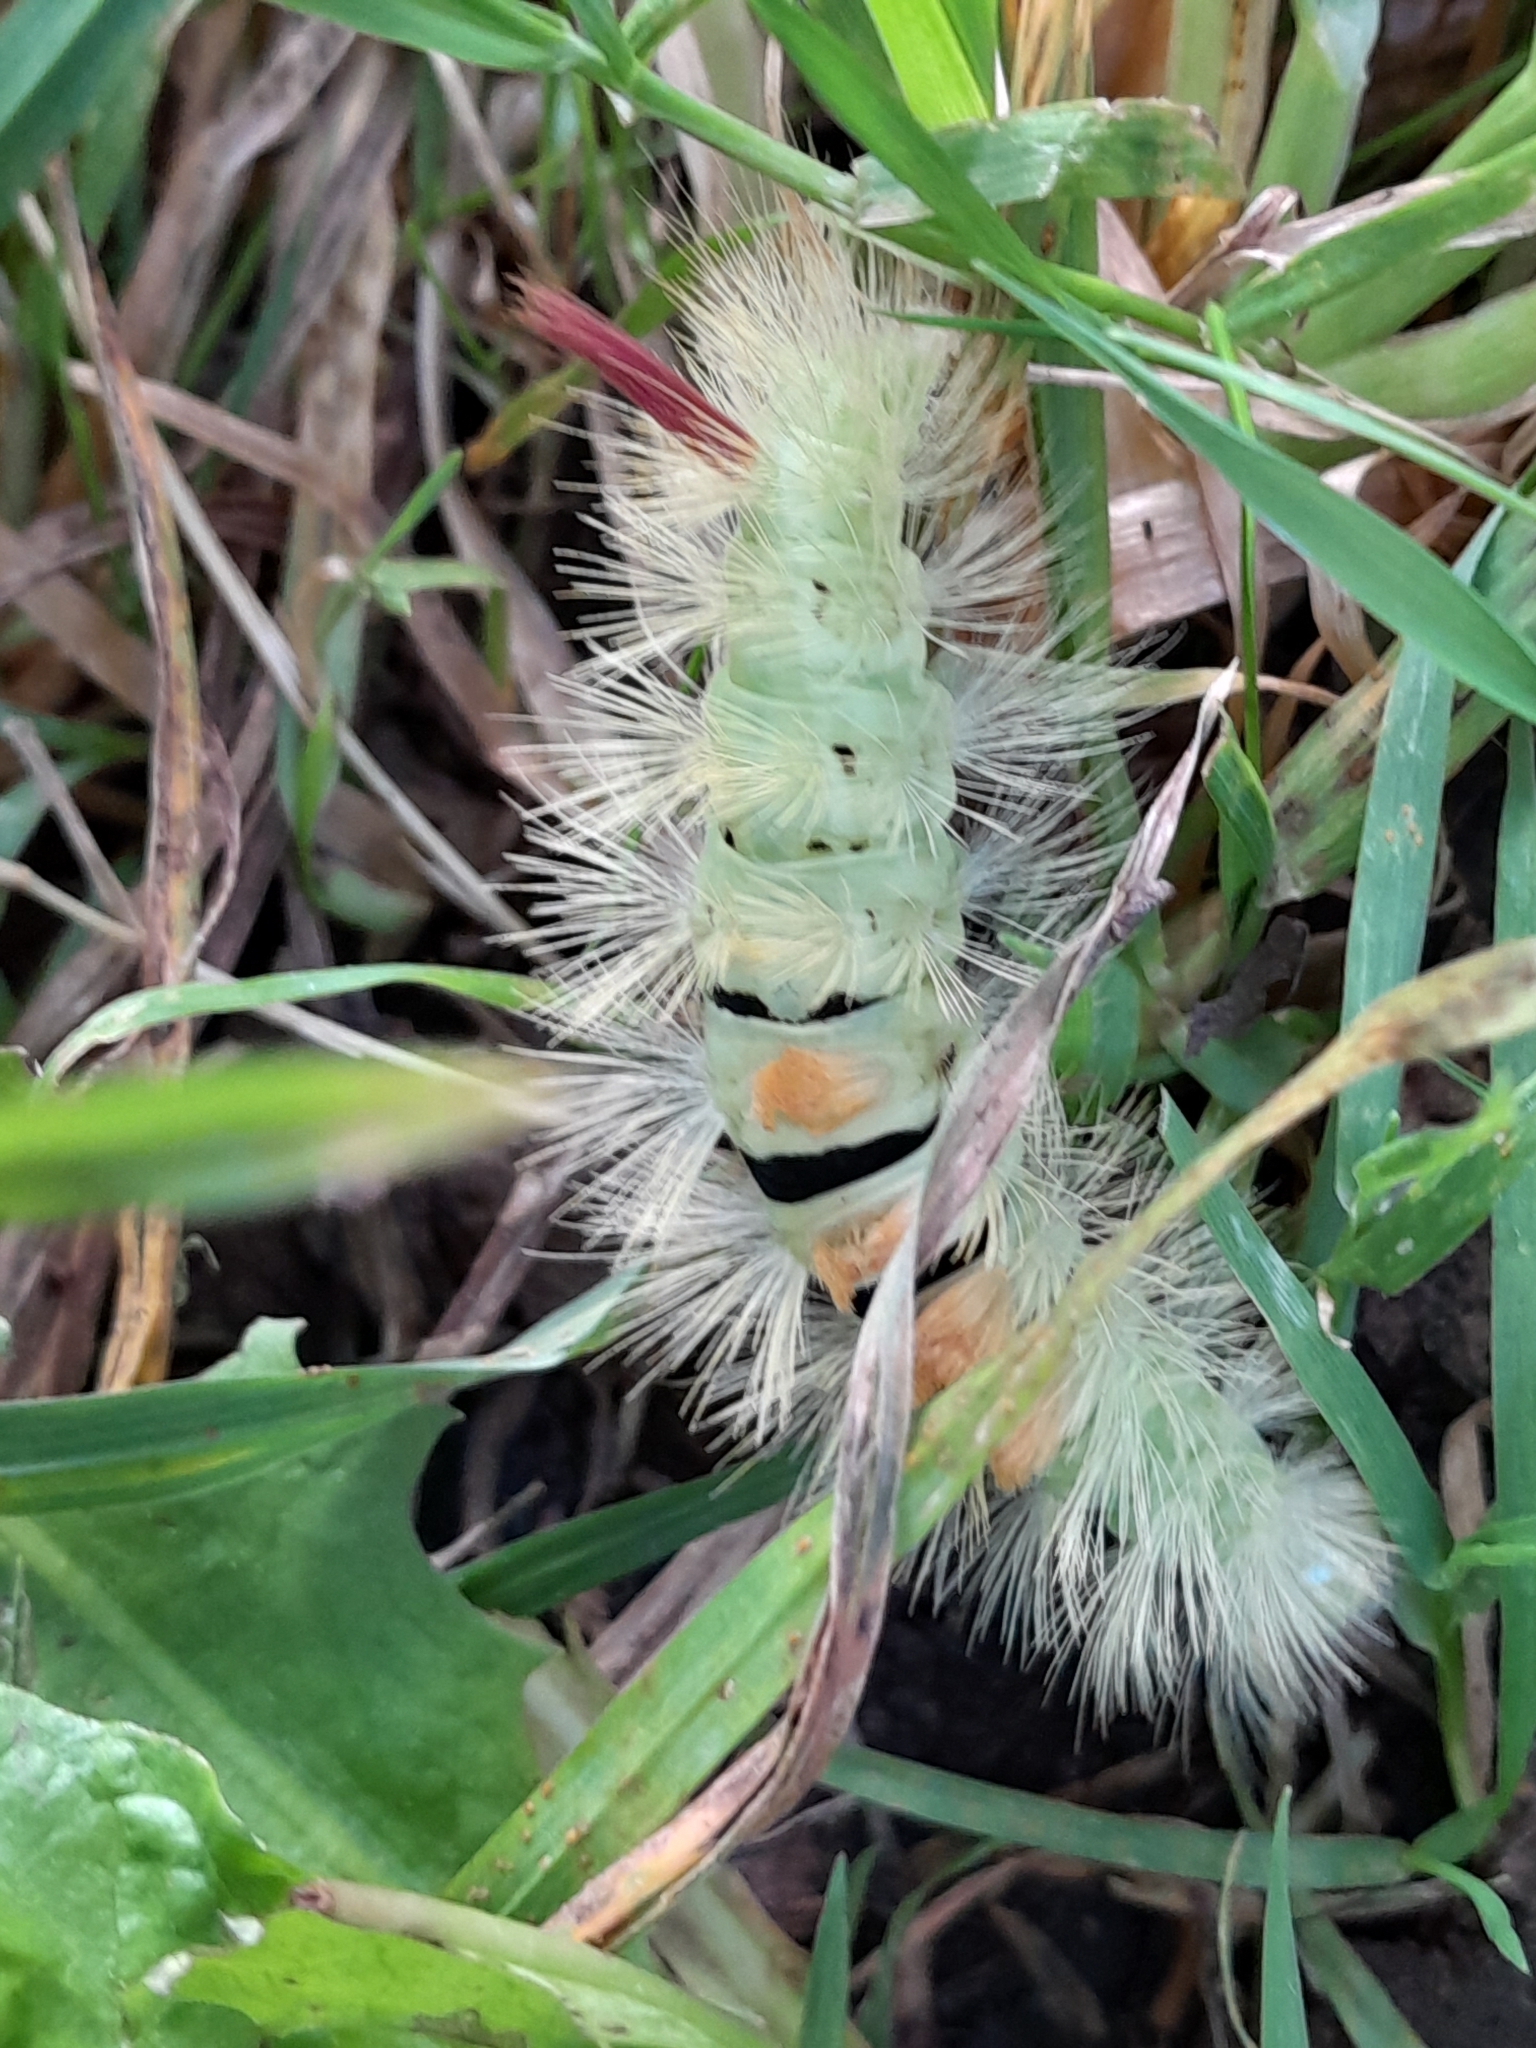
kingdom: Animalia
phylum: Arthropoda
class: Insecta
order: Lepidoptera
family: Erebidae
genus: Calliteara
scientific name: Calliteara pudibunda
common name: Pale tussock
